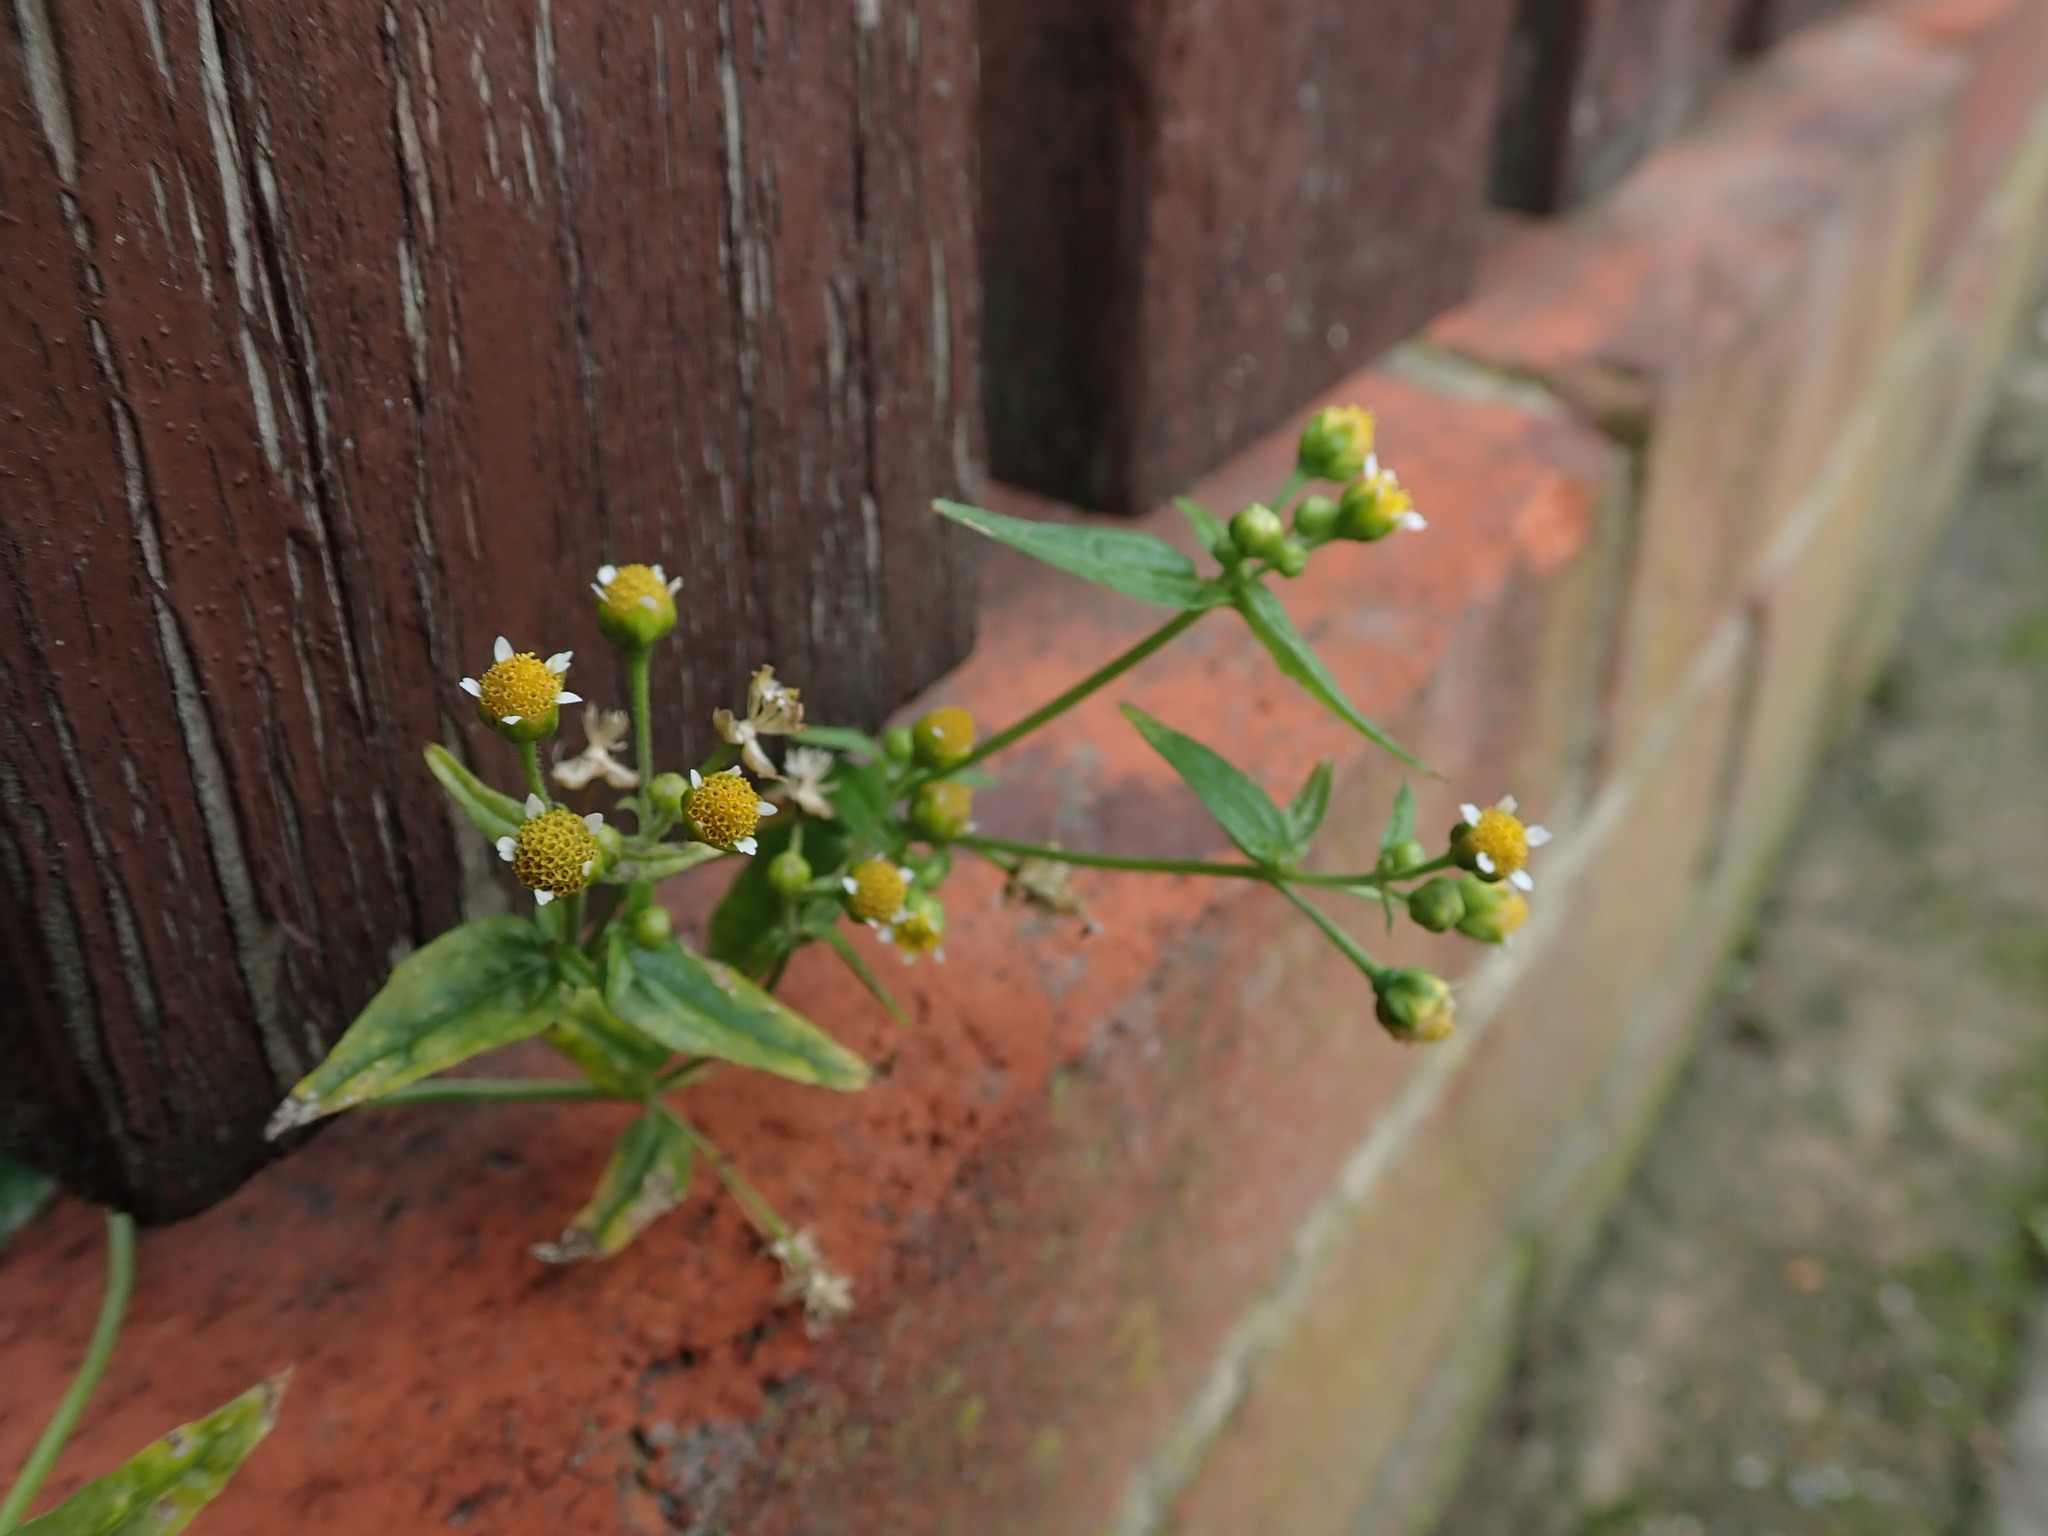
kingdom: Plantae
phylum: Tracheophyta
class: Magnoliopsida
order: Asterales
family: Asteraceae
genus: Galinsoga
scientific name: Galinsoga parviflora
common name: Gallant soldier
